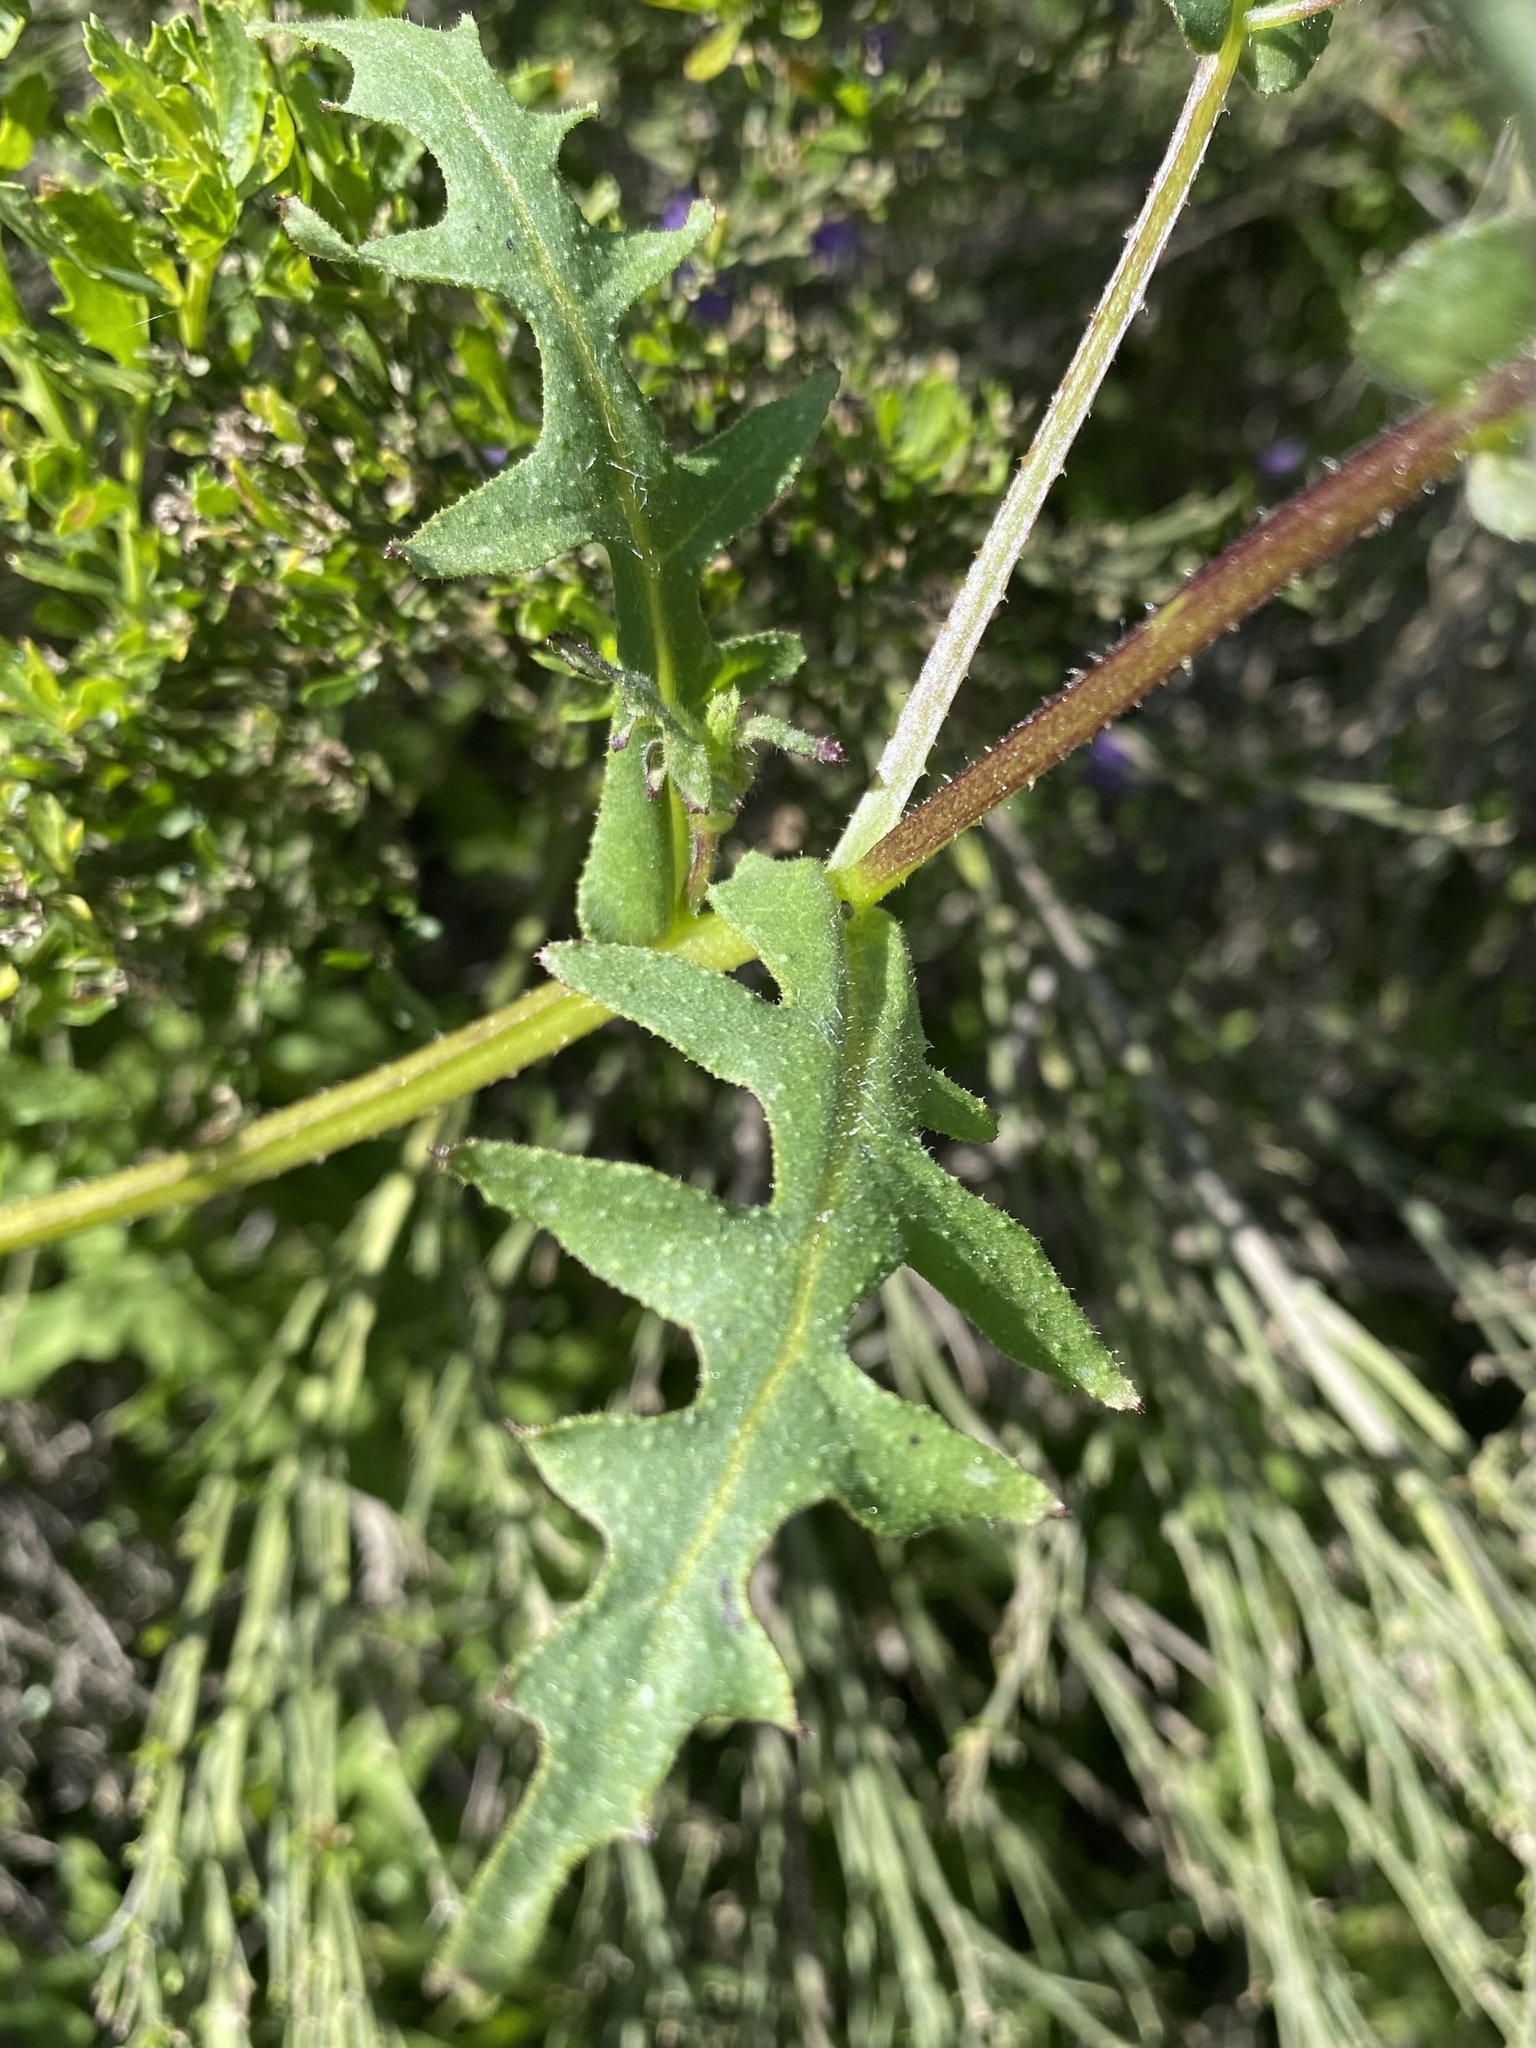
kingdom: Plantae
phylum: Tracheophyta
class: Magnoliopsida
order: Boraginales
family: Hydrophyllaceae
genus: Pholistoma
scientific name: Pholistoma auritum
